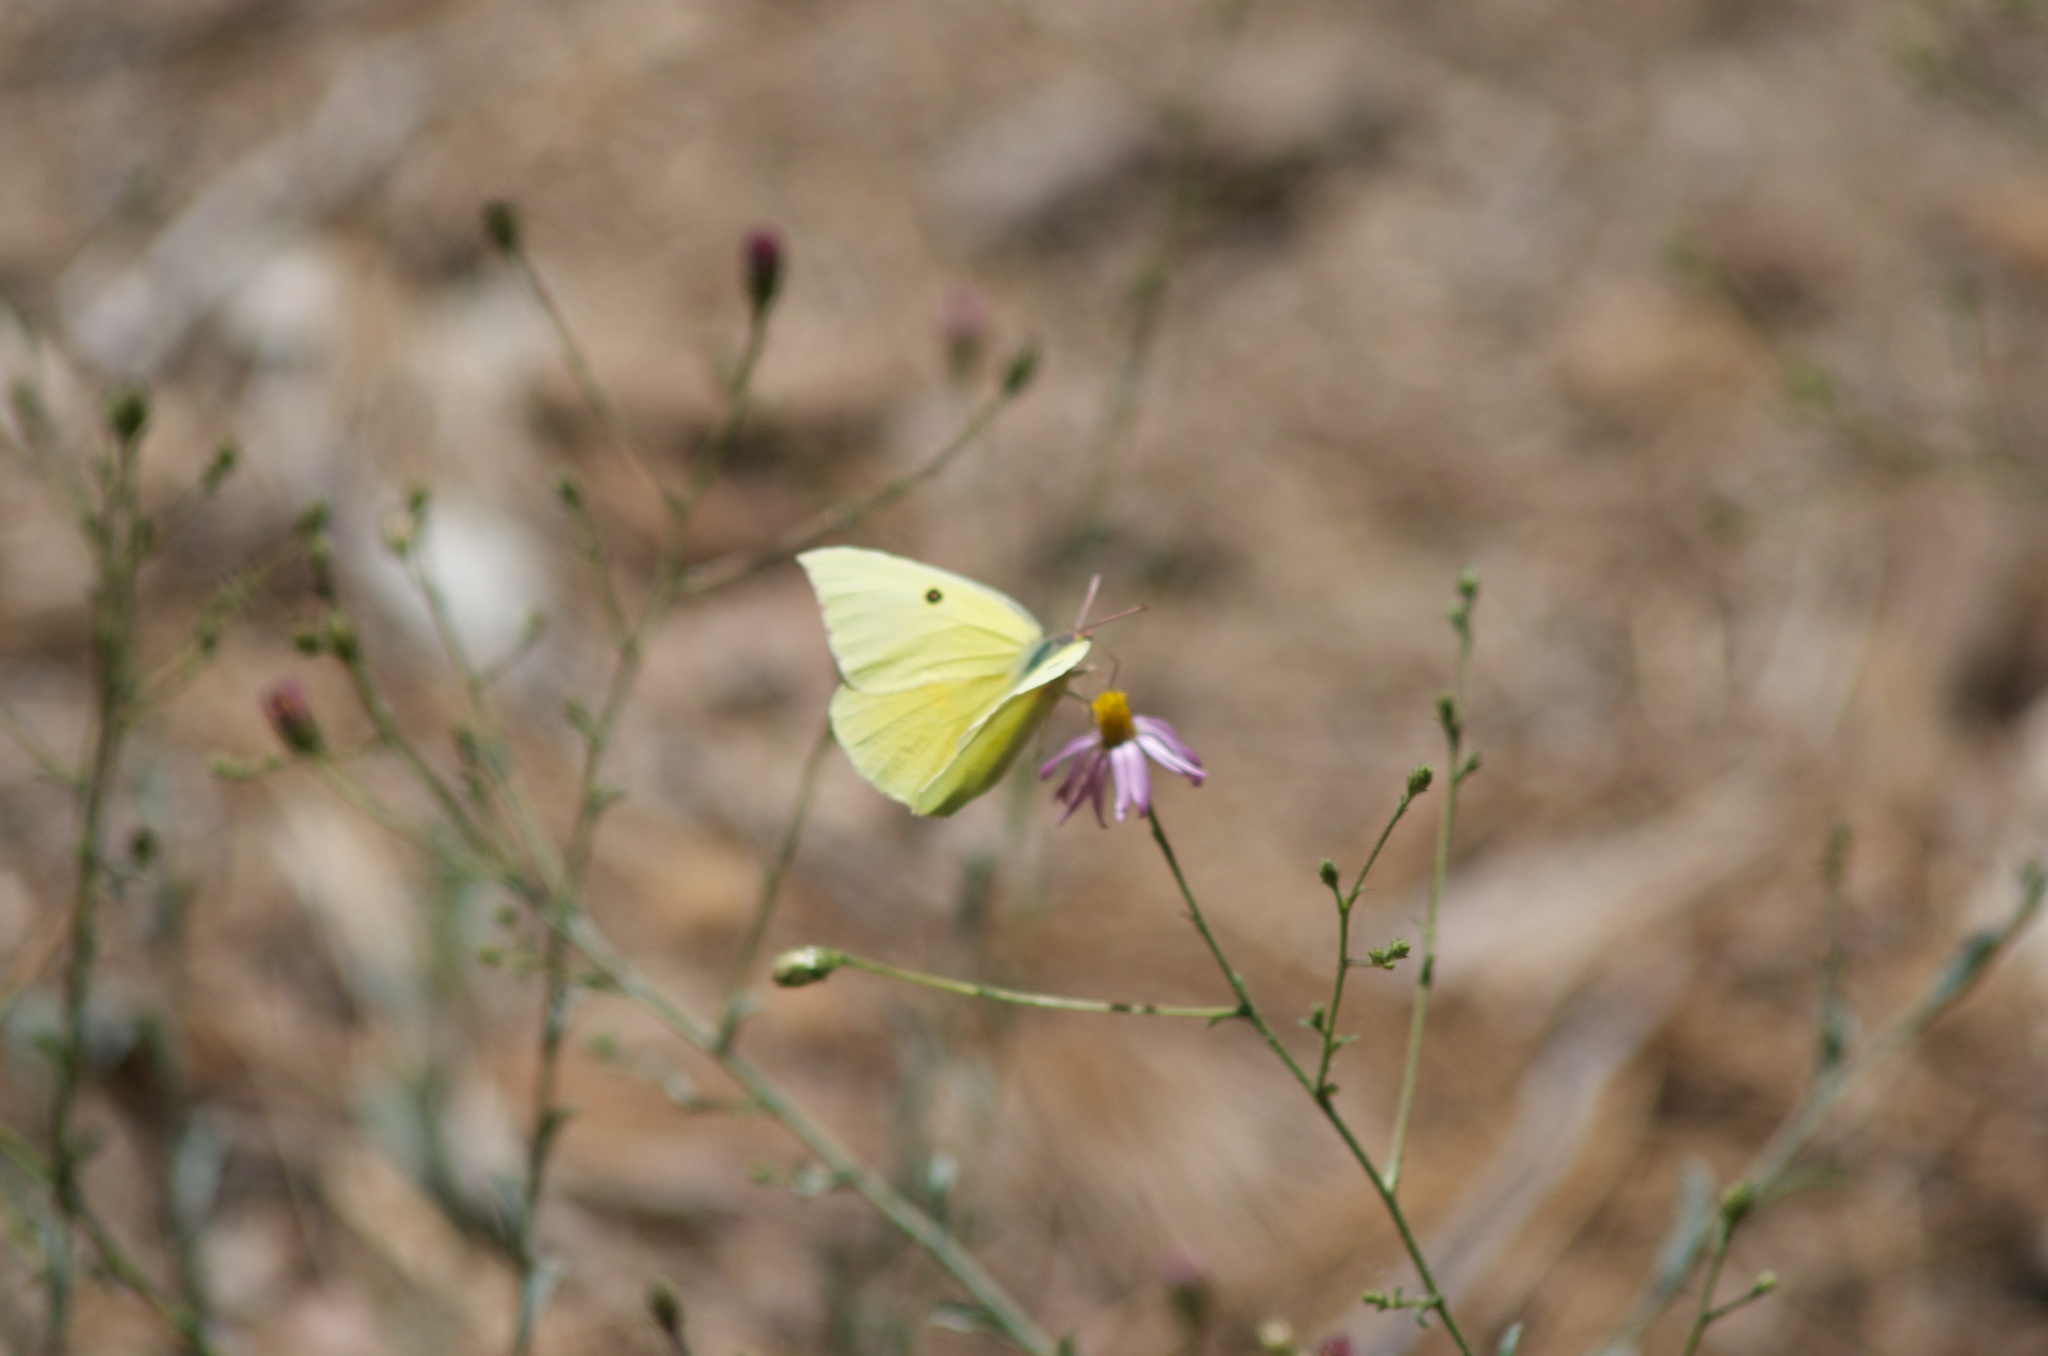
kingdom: Animalia
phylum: Arthropoda
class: Insecta
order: Lepidoptera
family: Pieridae
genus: Zerene
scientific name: Zerene eurydice
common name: California dogface
